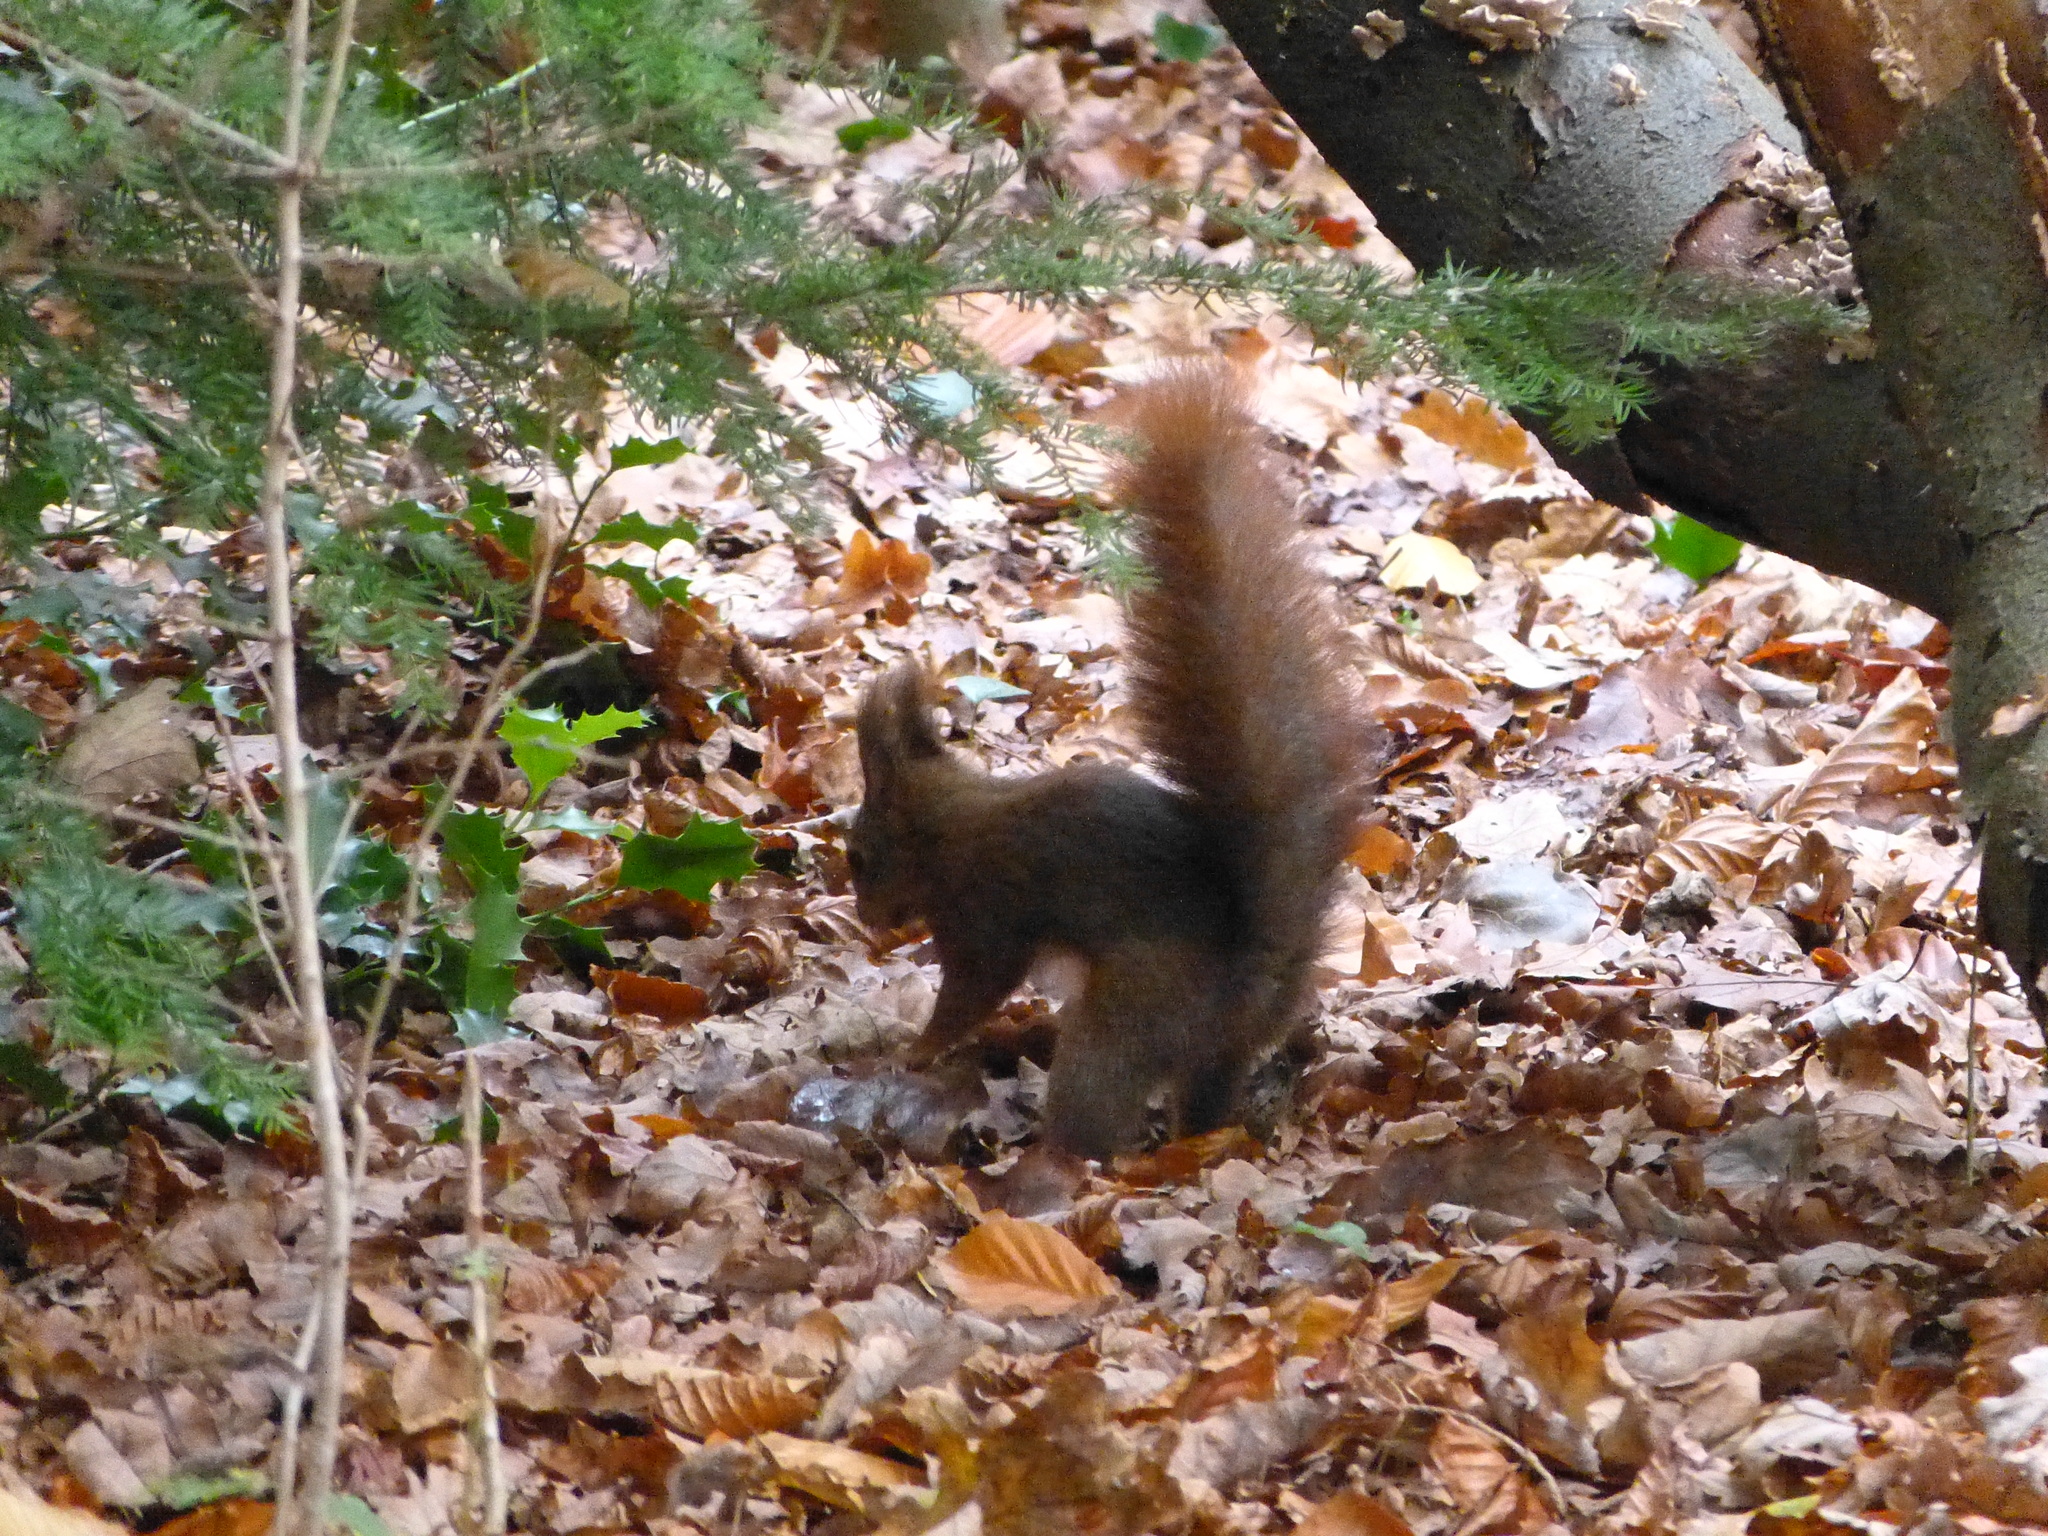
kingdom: Animalia
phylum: Chordata
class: Mammalia
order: Rodentia
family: Sciuridae
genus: Sciurus
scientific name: Sciurus vulgaris
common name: Eurasian red squirrel
